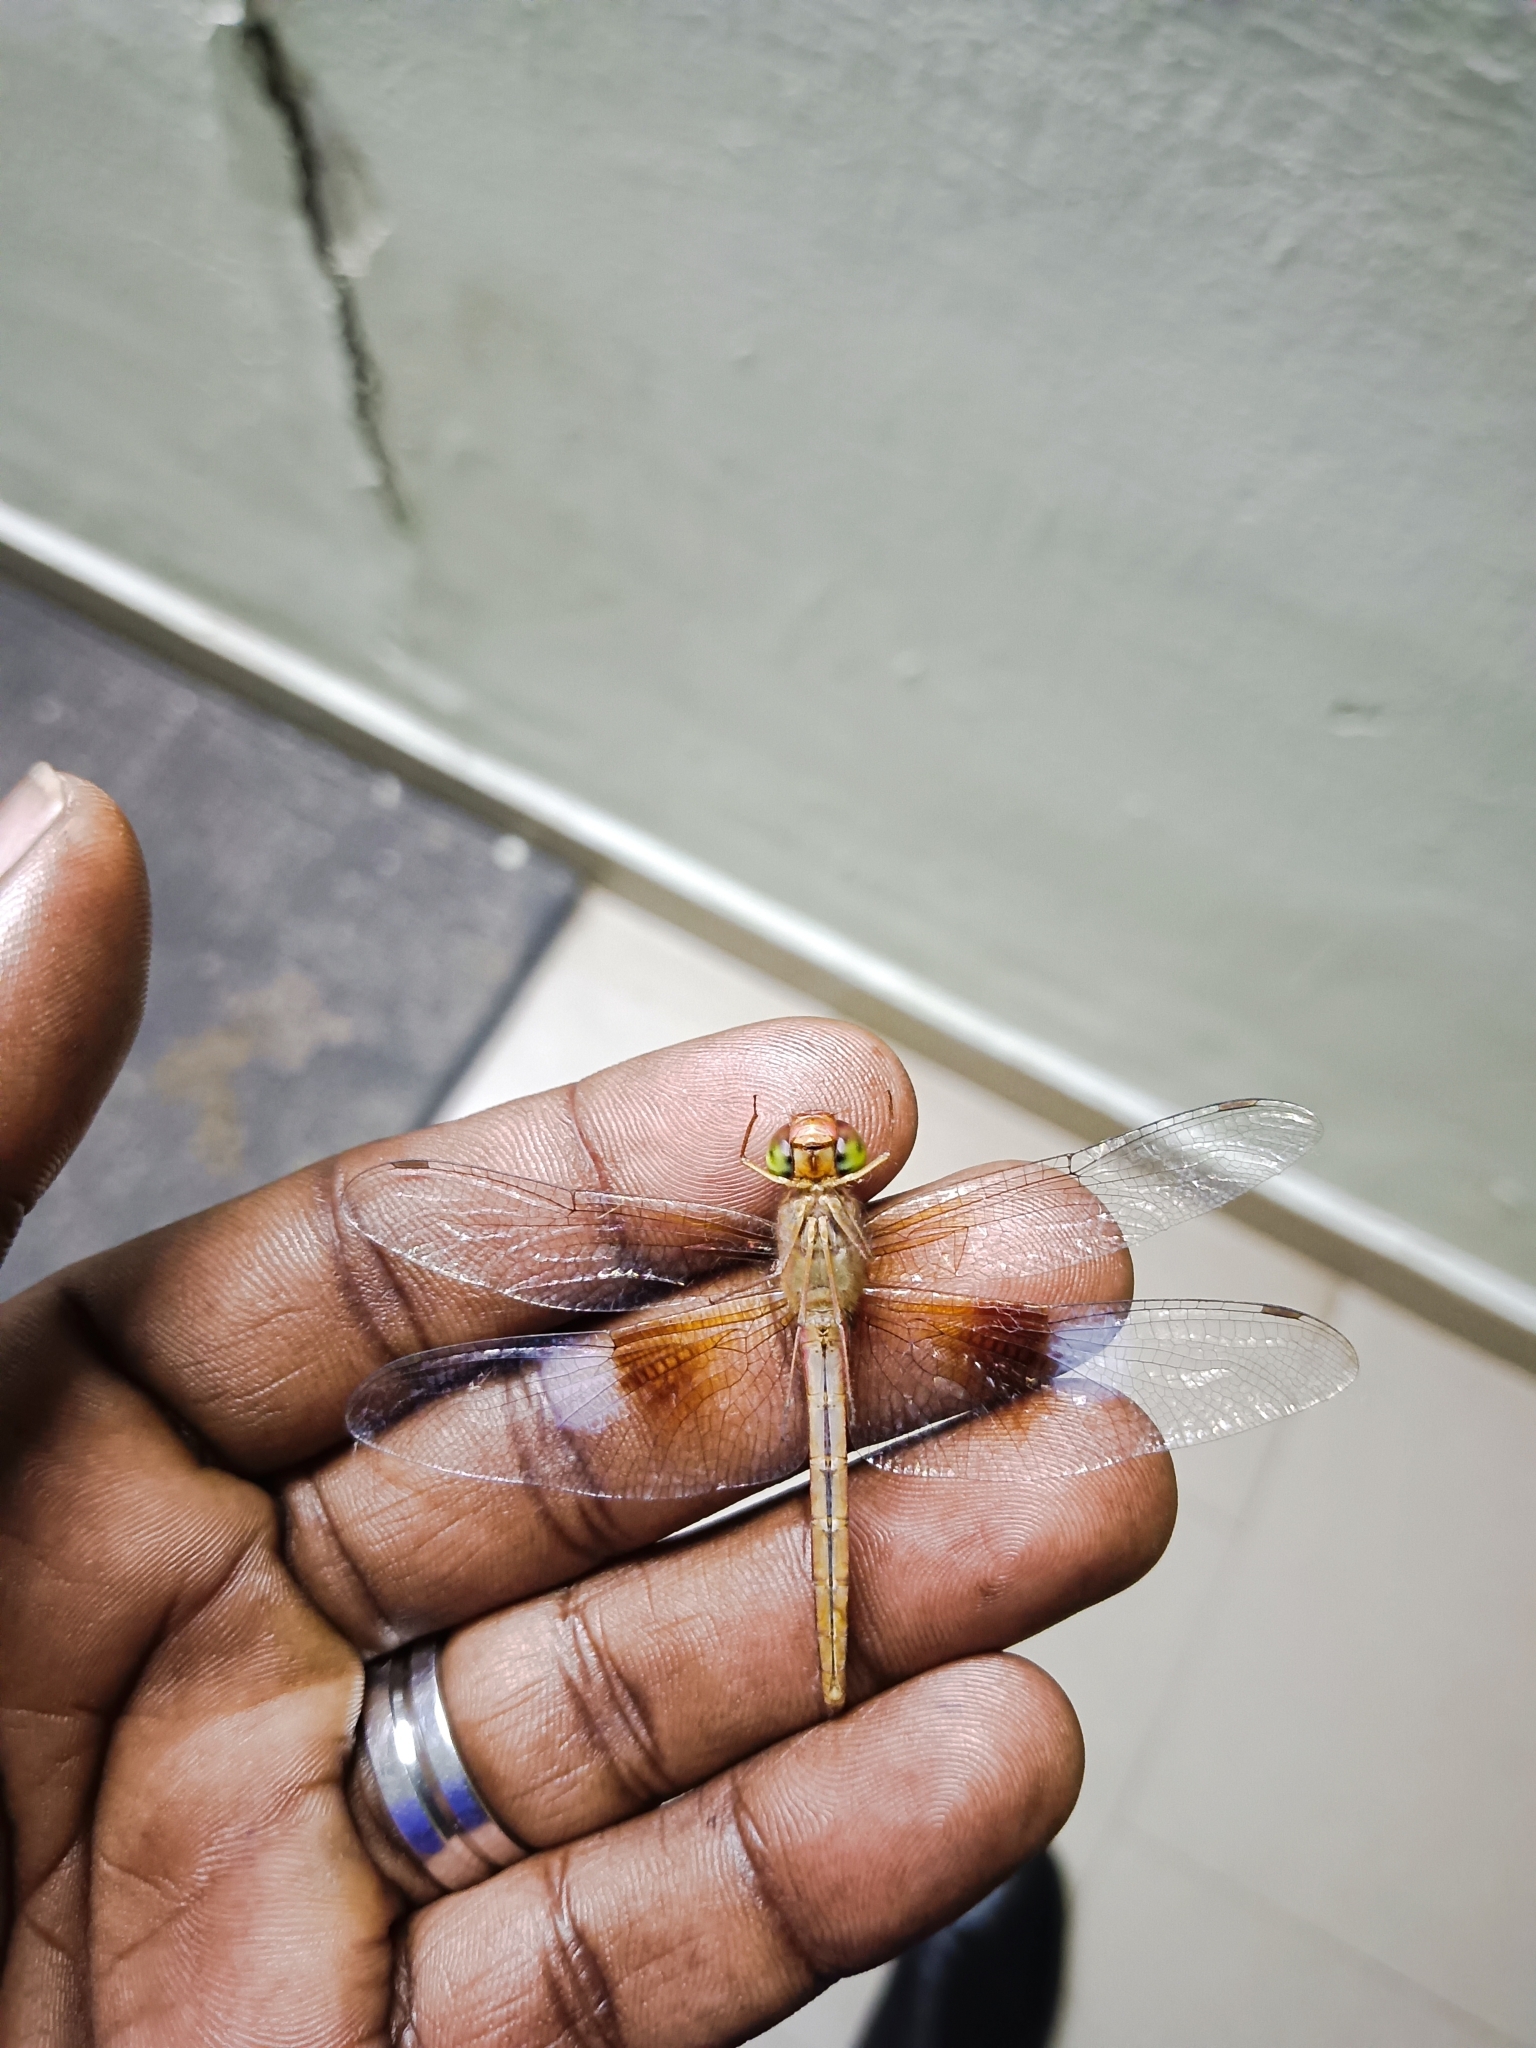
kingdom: Animalia
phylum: Arthropoda
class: Insecta
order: Odonata
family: Libellulidae
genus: Tholymis
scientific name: Tholymis tillarga
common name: Coral-tailed cloud wing
